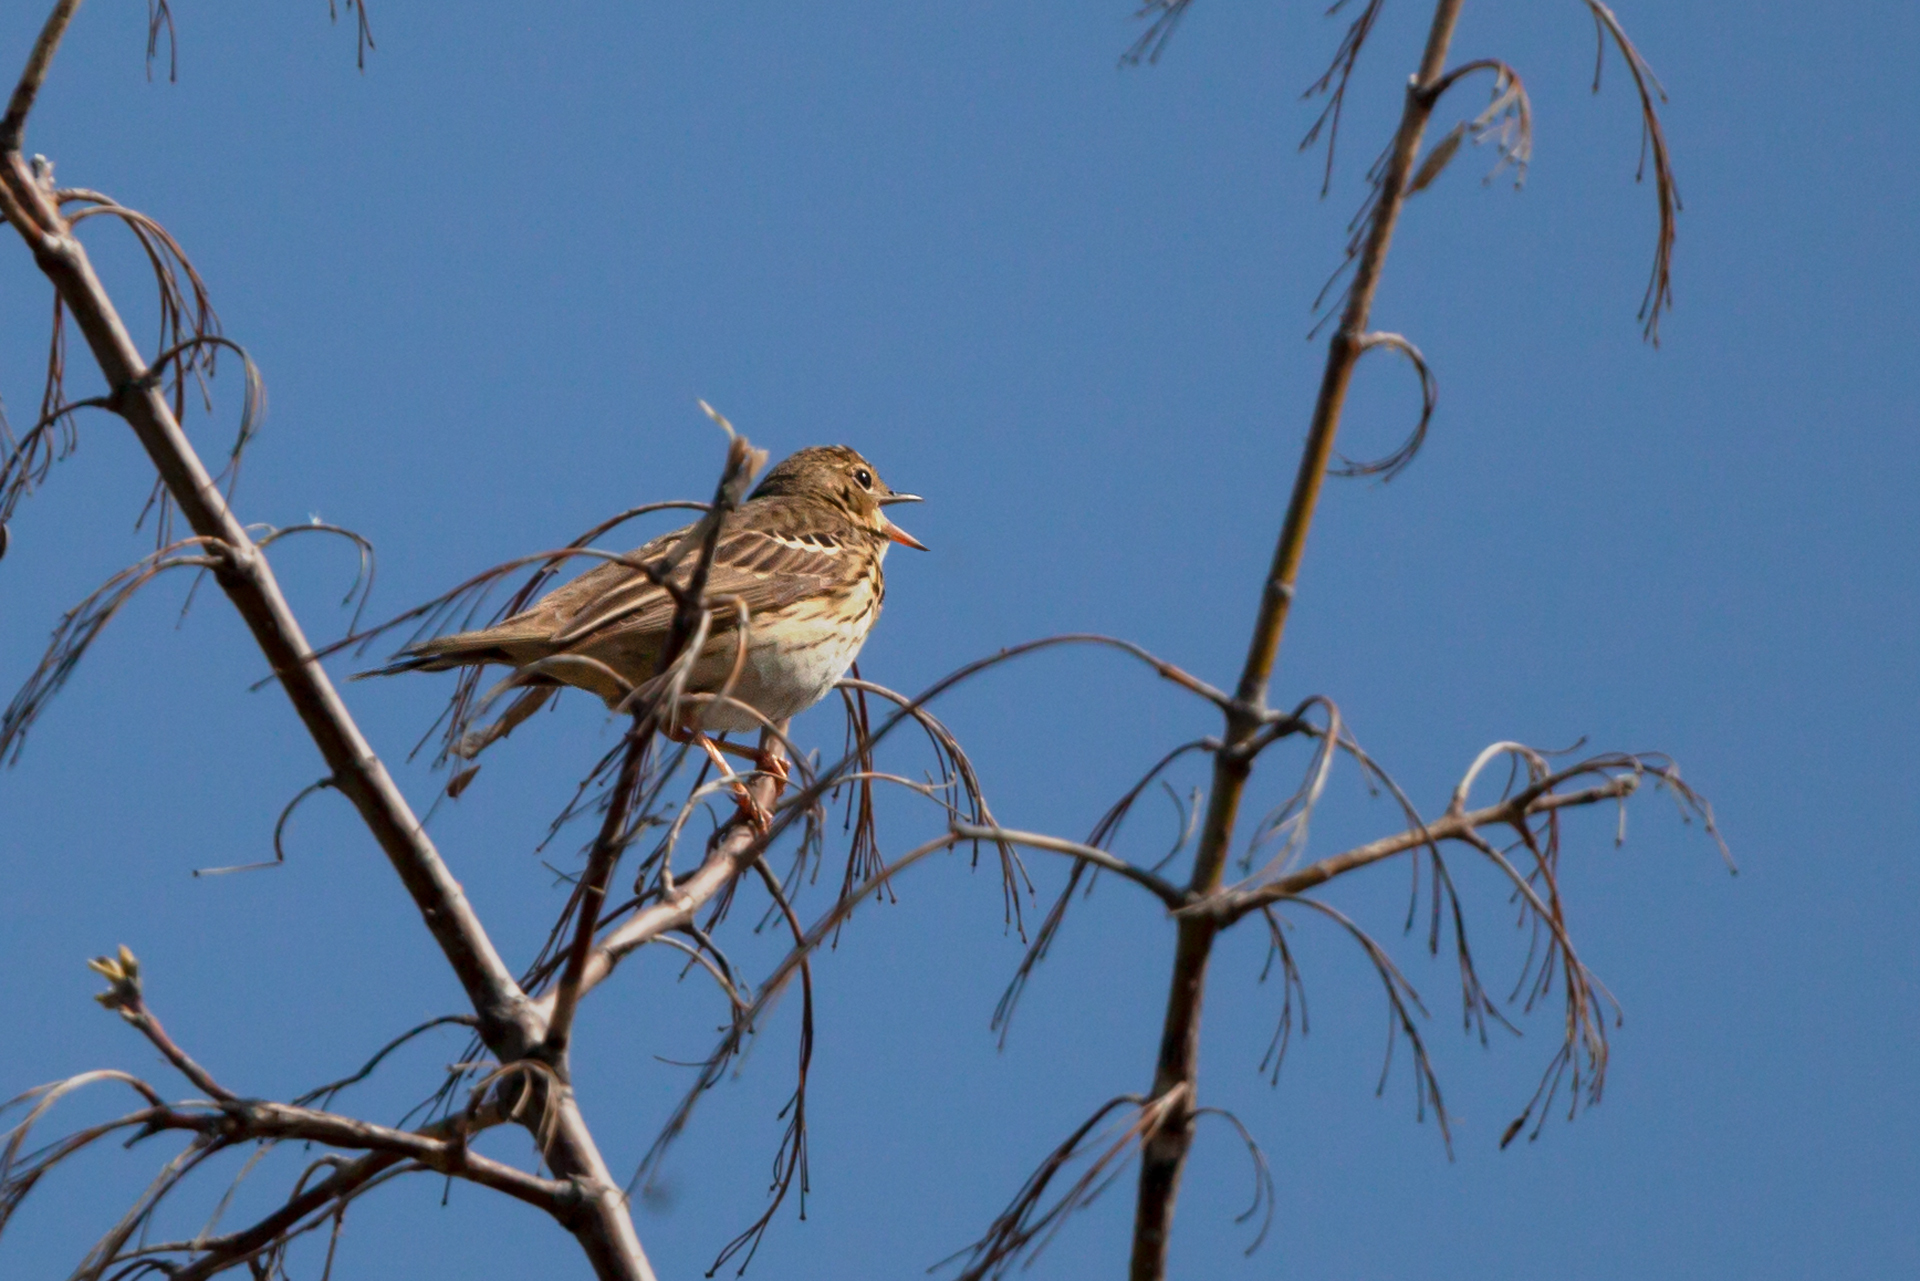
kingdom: Animalia
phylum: Chordata
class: Aves
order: Passeriformes
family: Motacillidae
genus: Anthus
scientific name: Anthus trivialis
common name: Tree pipit
